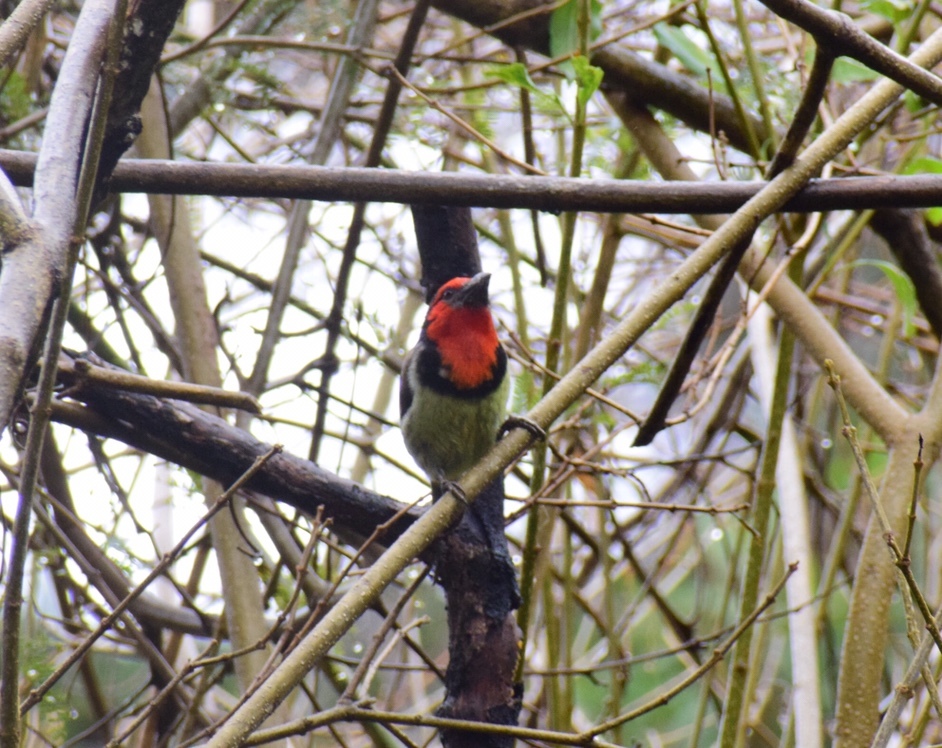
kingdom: Animalia
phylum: Chordata
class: Aves
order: Piciformes
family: Lybiidae
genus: Lybius
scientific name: Lybius torquatus
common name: Black-collared barbet
